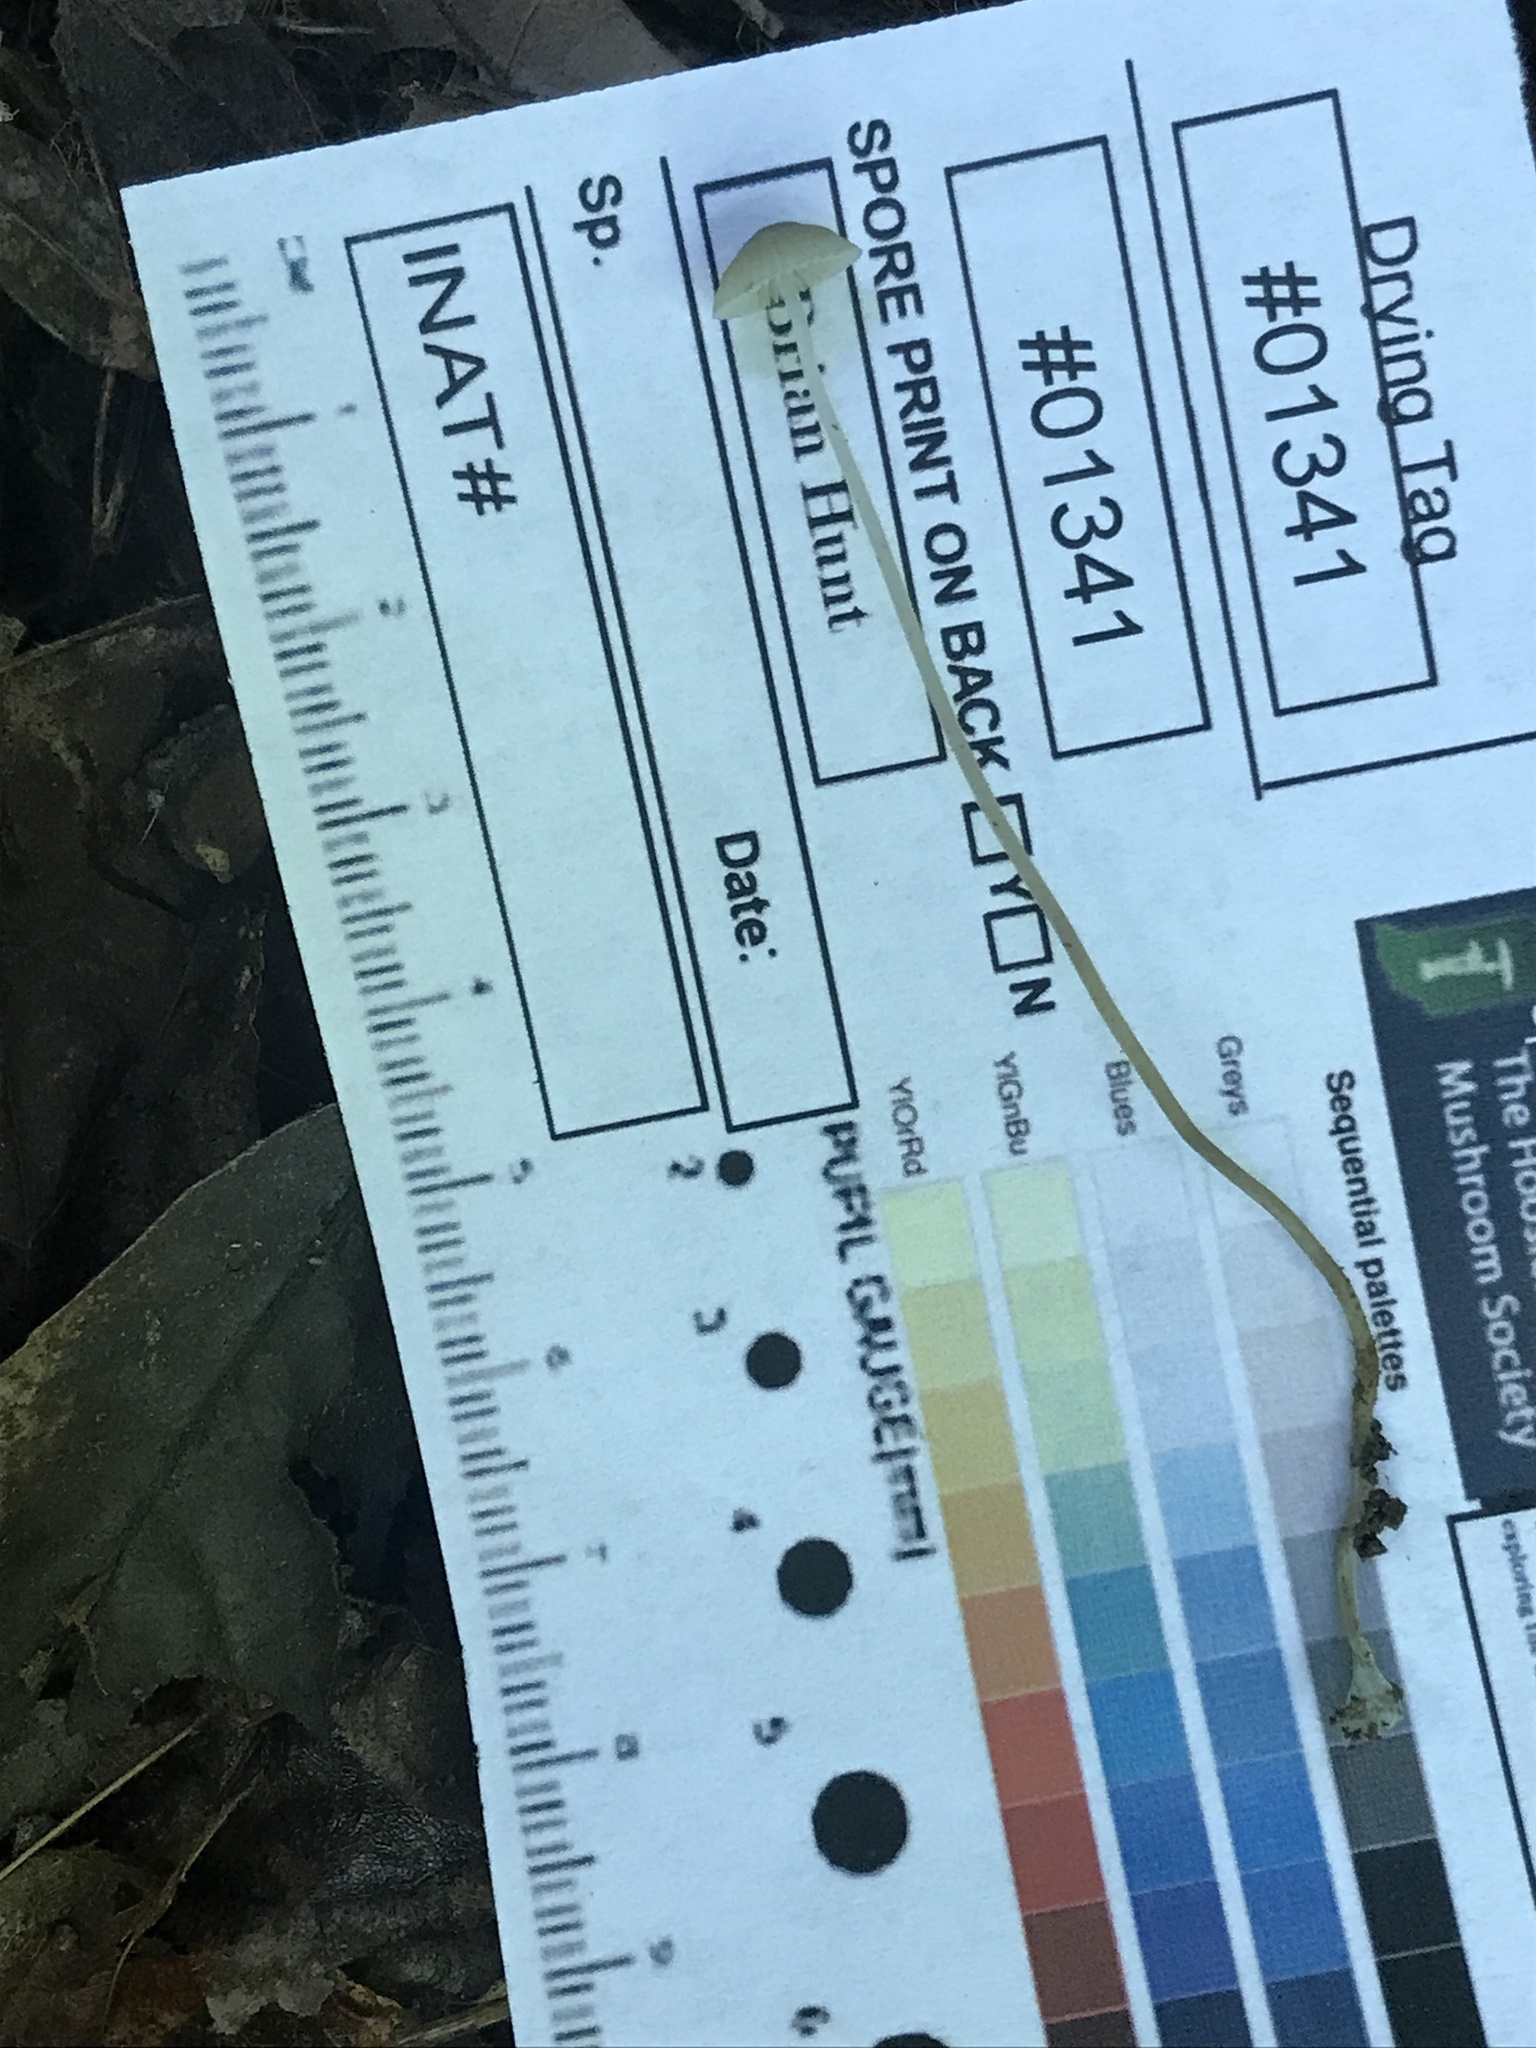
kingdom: Fungi
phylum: Basidiomycota
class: Agaricomycetes
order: Agaricales
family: Mycenaceae
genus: Mycena
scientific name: Mycena subcaerulea
